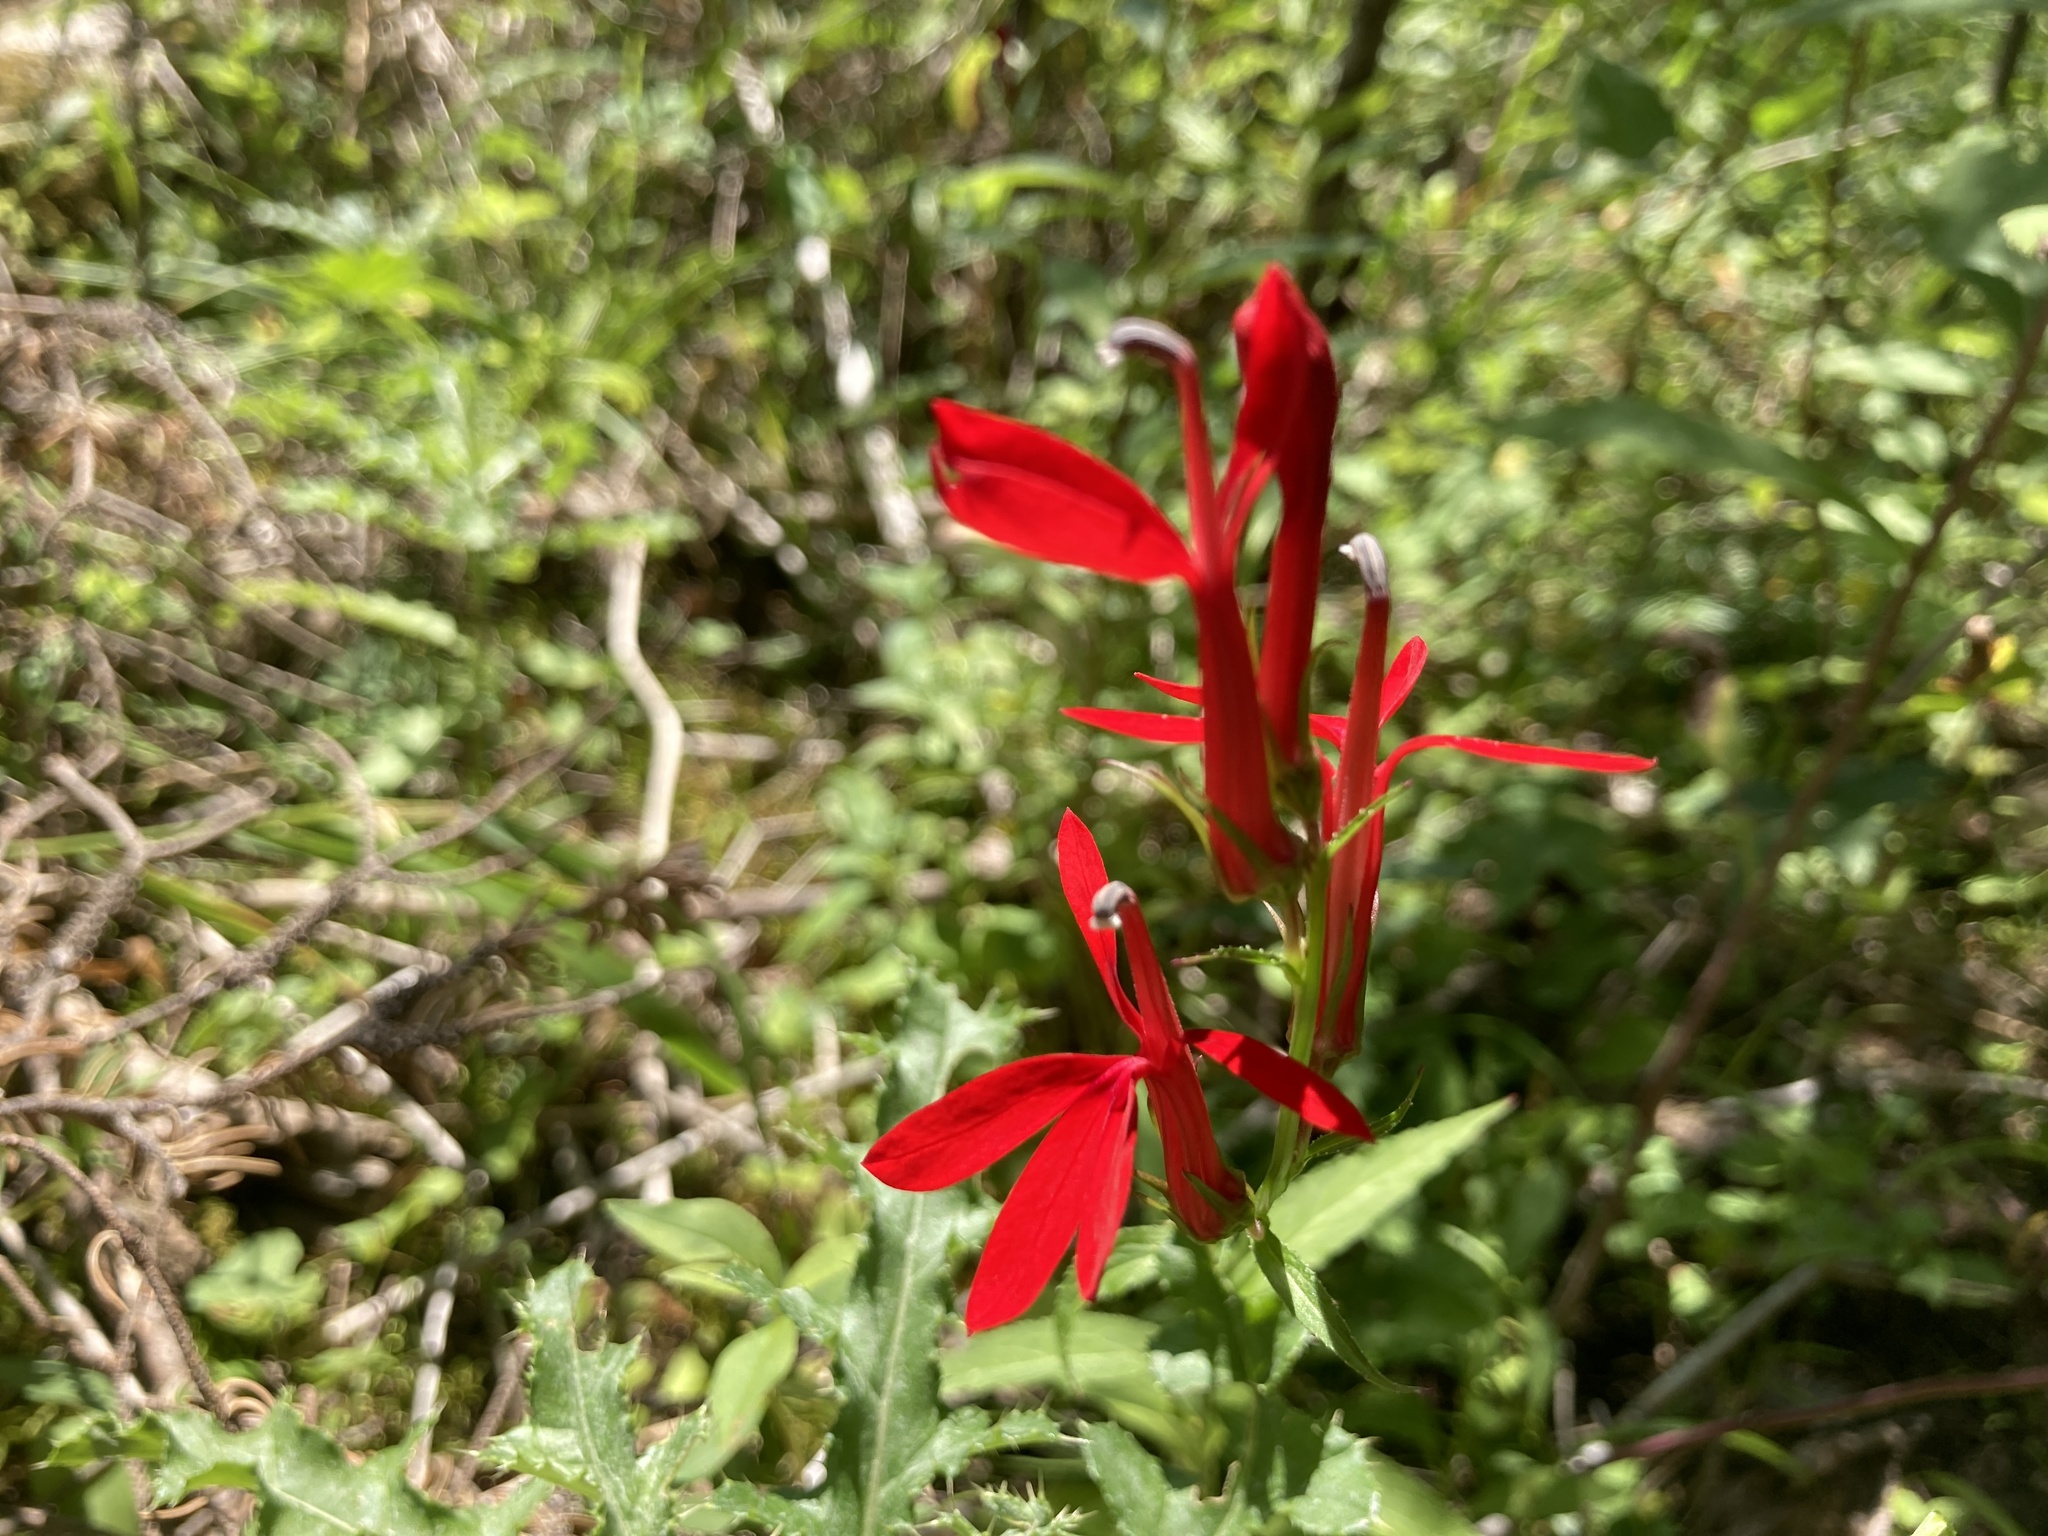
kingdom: Plantae
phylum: Tracheophyta
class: Magnoliopsida
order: Asterales
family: Campanulaceae
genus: Lobelia
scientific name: Lobelia cardinalis
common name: Cardinal flower
